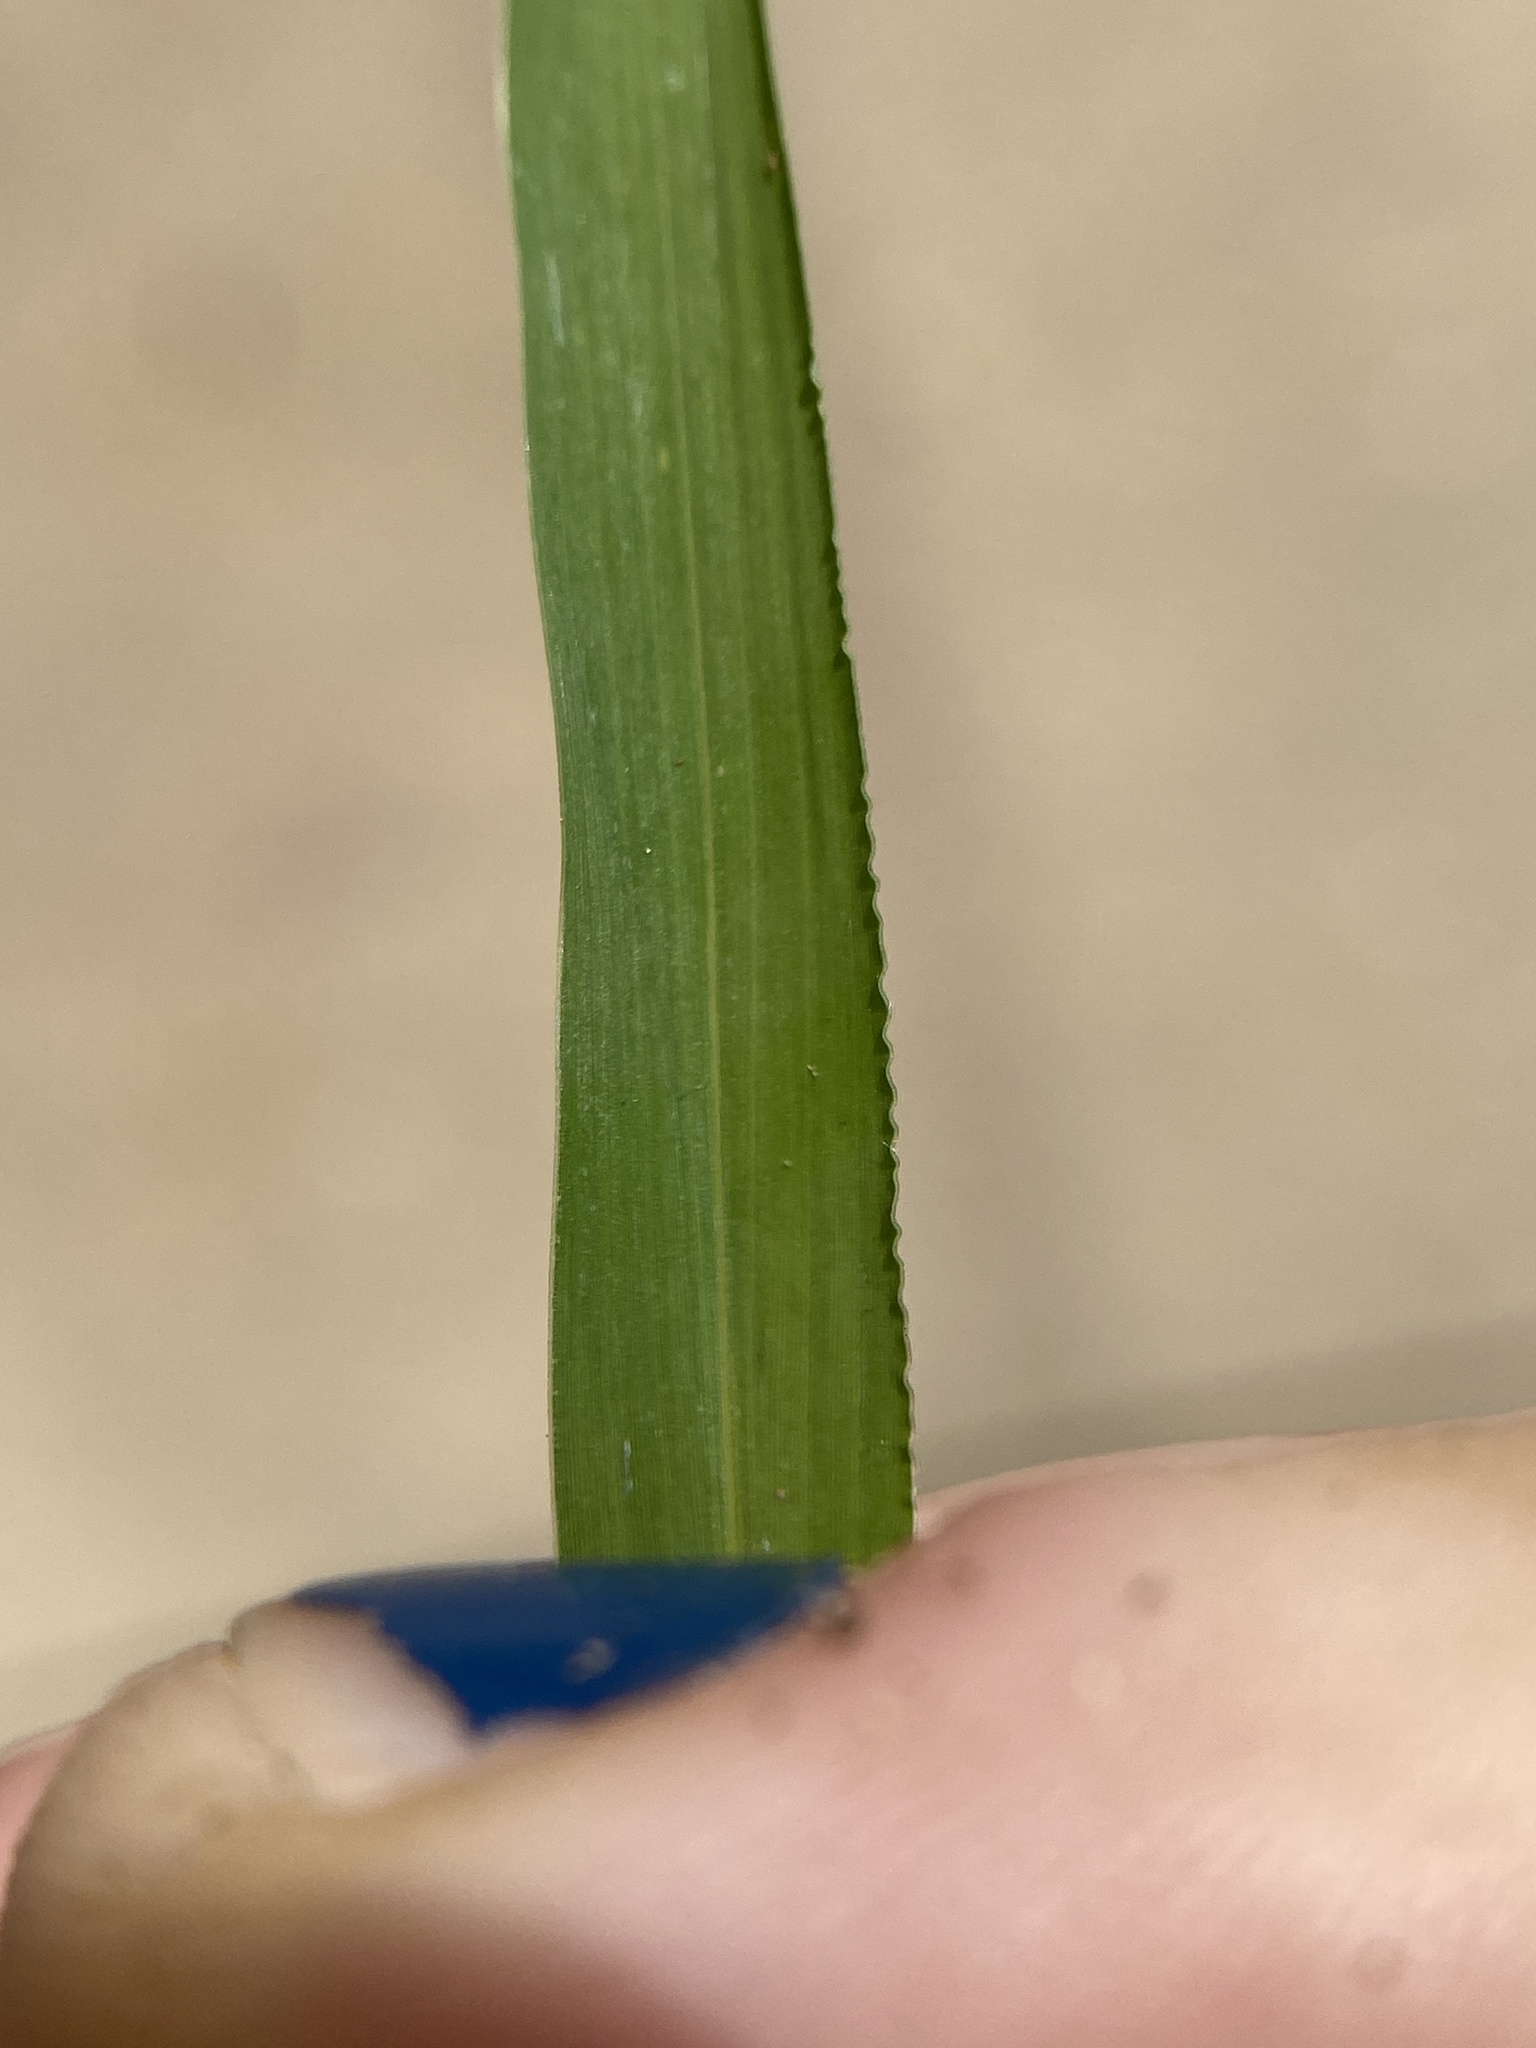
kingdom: Plantae
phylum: Tracheophyta
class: Liliopsida
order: Poales
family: Poaceae
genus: Setaria
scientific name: Setaria viridis
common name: Green bristlegrass
